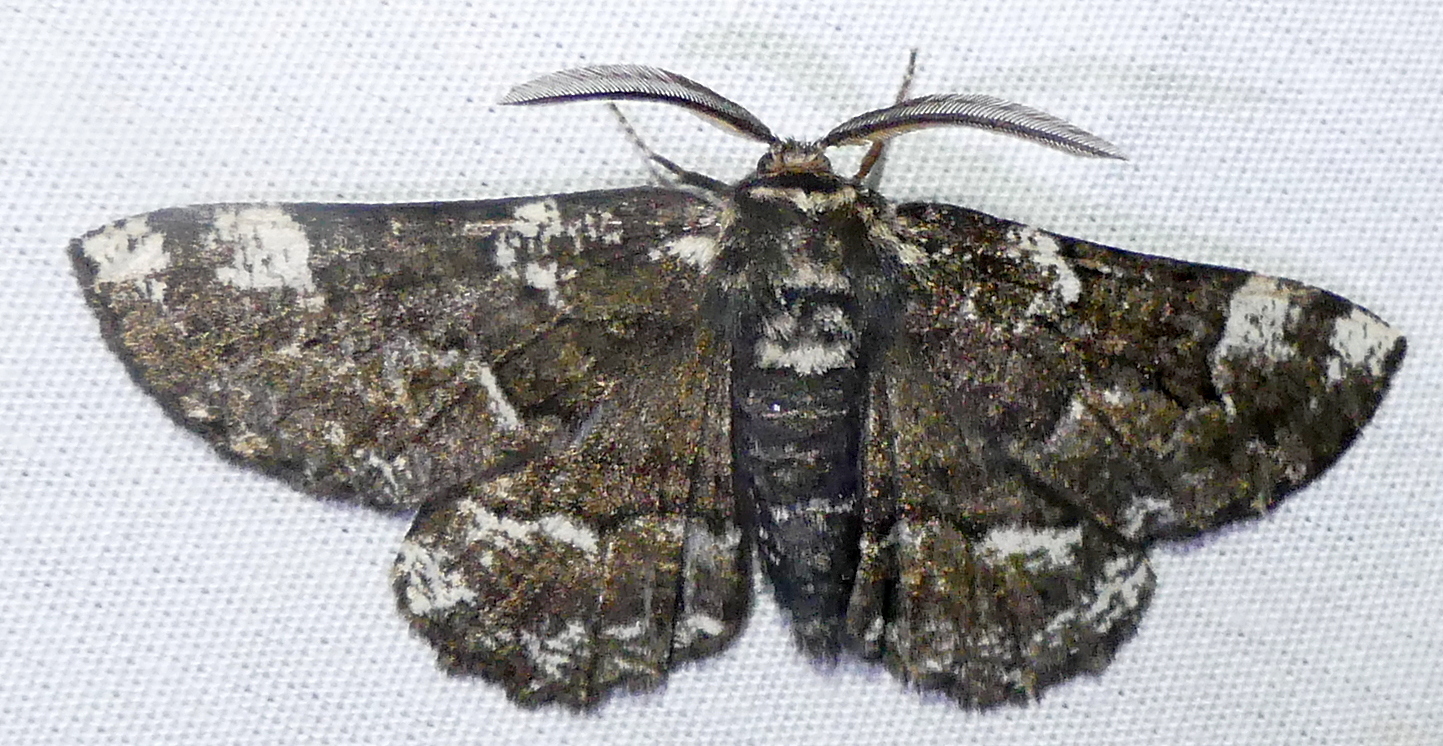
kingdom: Animalia
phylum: Arthropoda
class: Insecta
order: Lepidoptera
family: Geometridae
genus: Phaeoura
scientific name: Phaeoura quernaria
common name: Oak beauty
